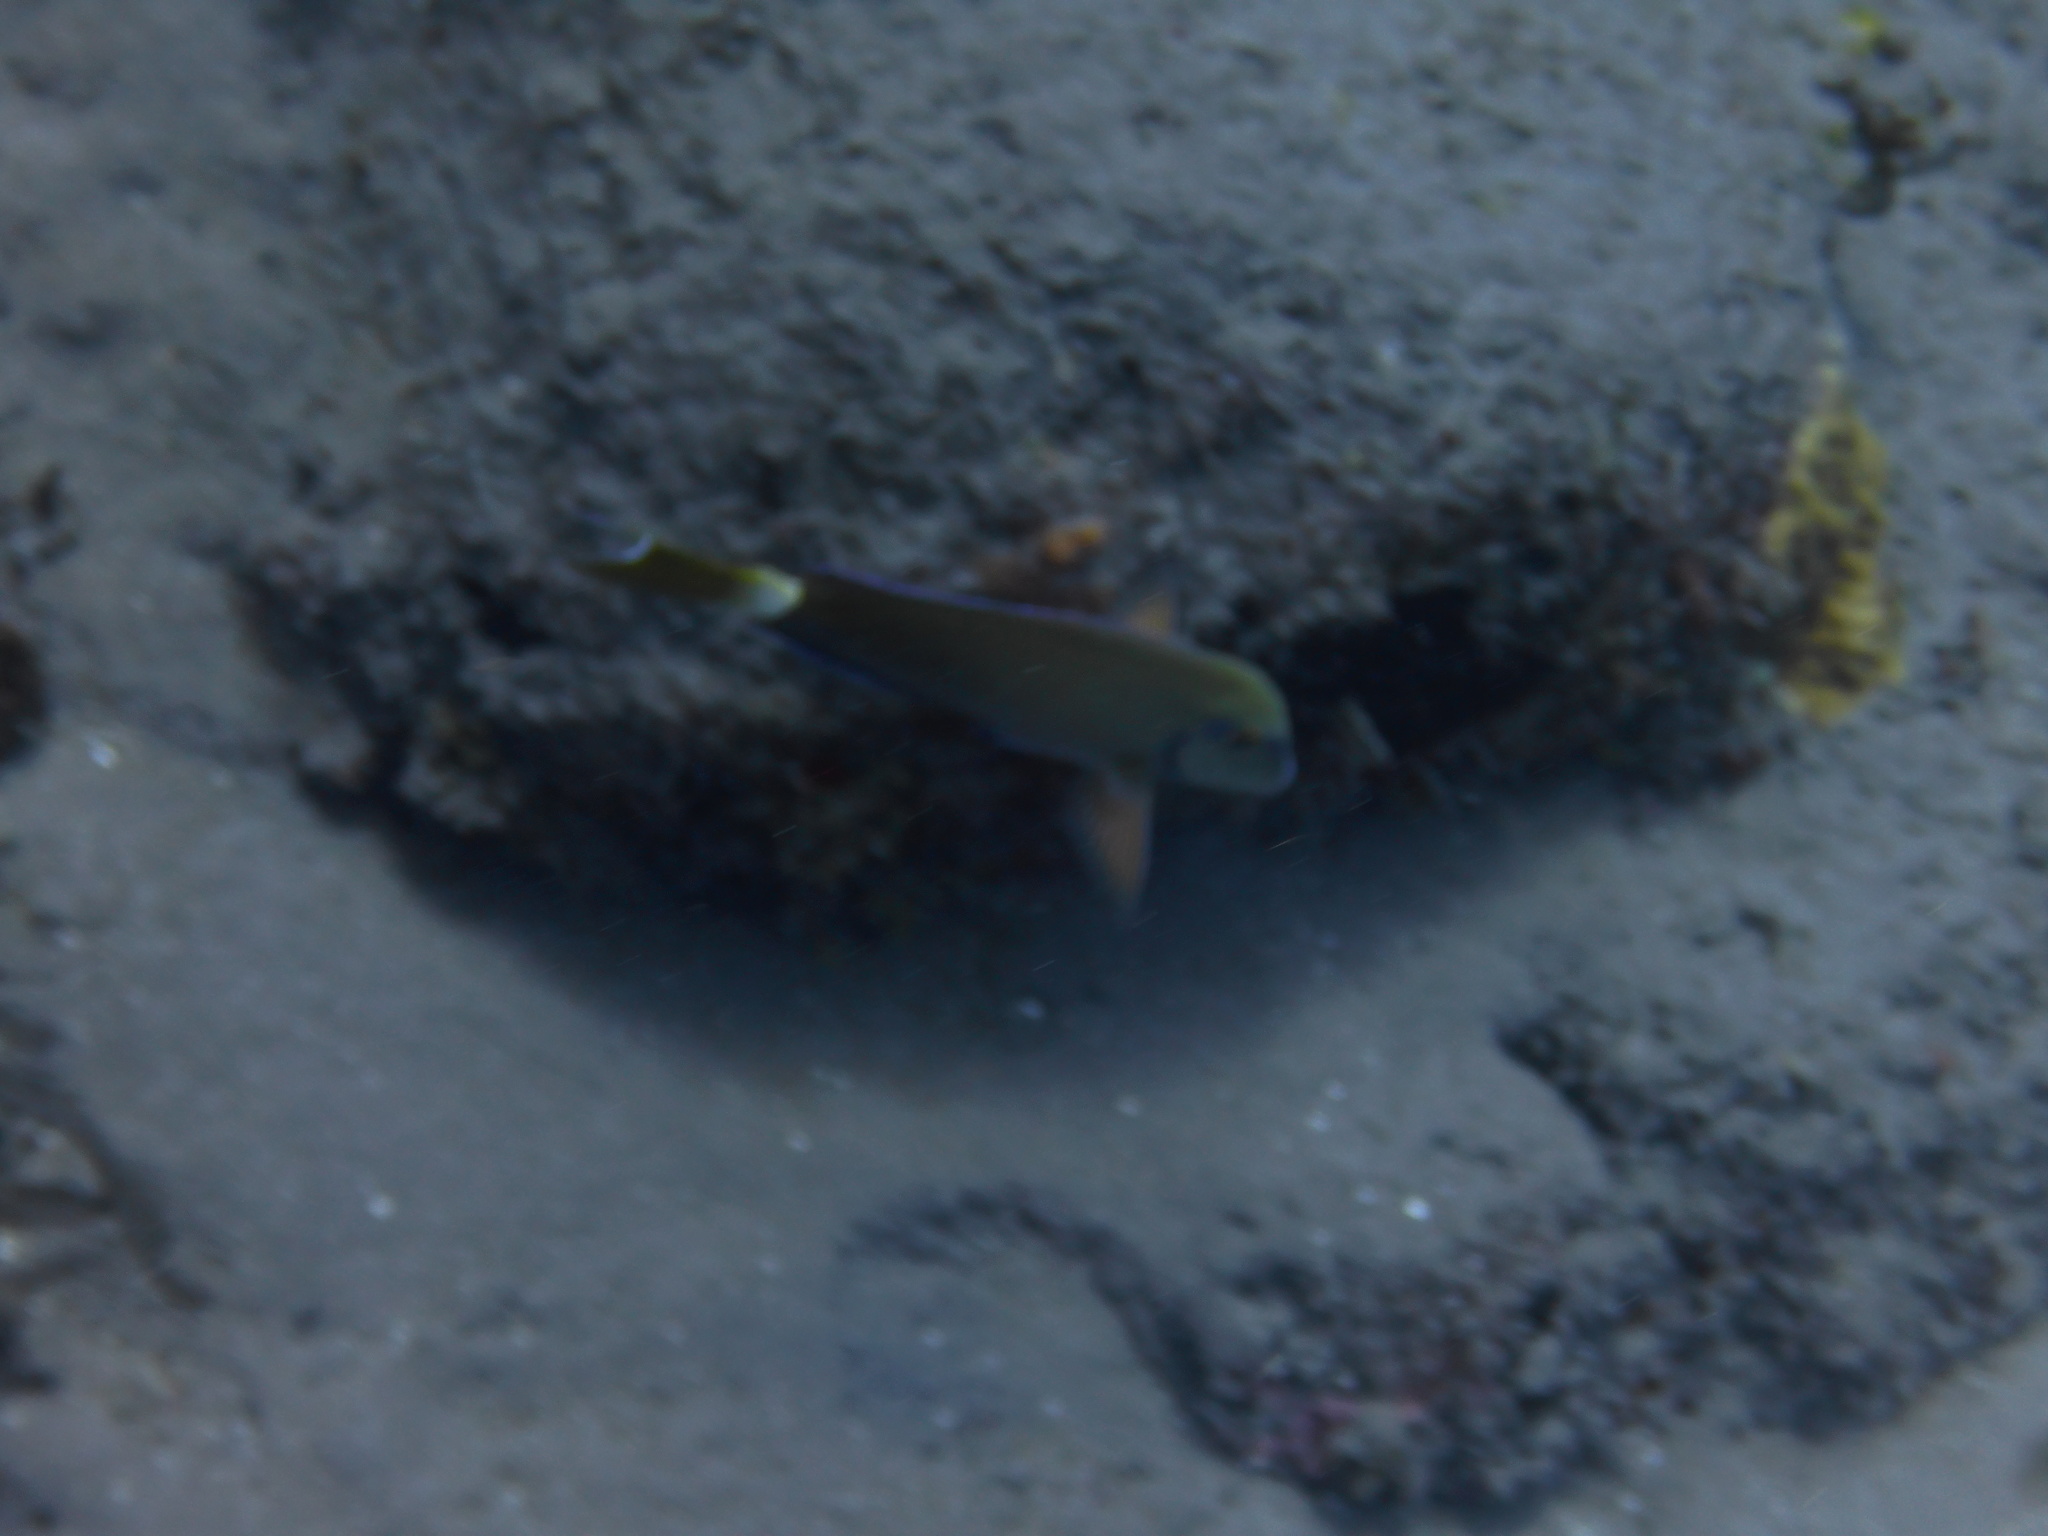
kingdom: Animalia
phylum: Chordata
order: Perciformes
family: Acanthuridae
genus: Acanthurus
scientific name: Acanthurus bahianus
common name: Ocean surgeon
